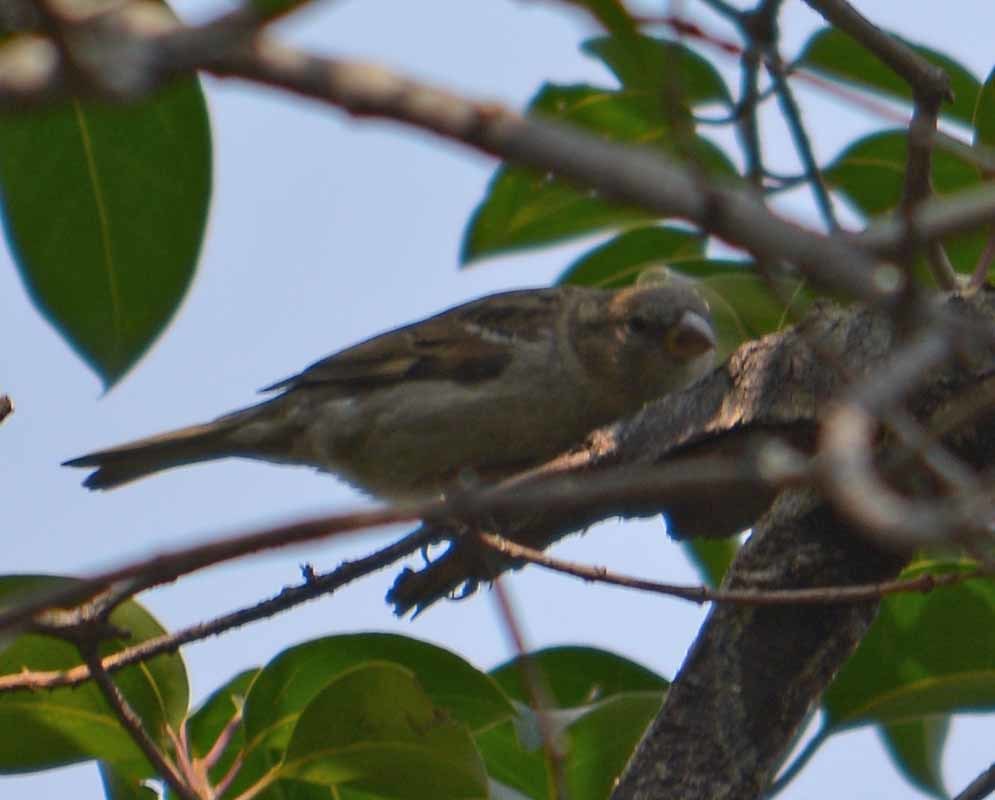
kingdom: Animalia
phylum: Chordata
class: Aves
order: Passeriformes
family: Passeridae
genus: Passer
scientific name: Passer domesticus
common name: House sparrow
